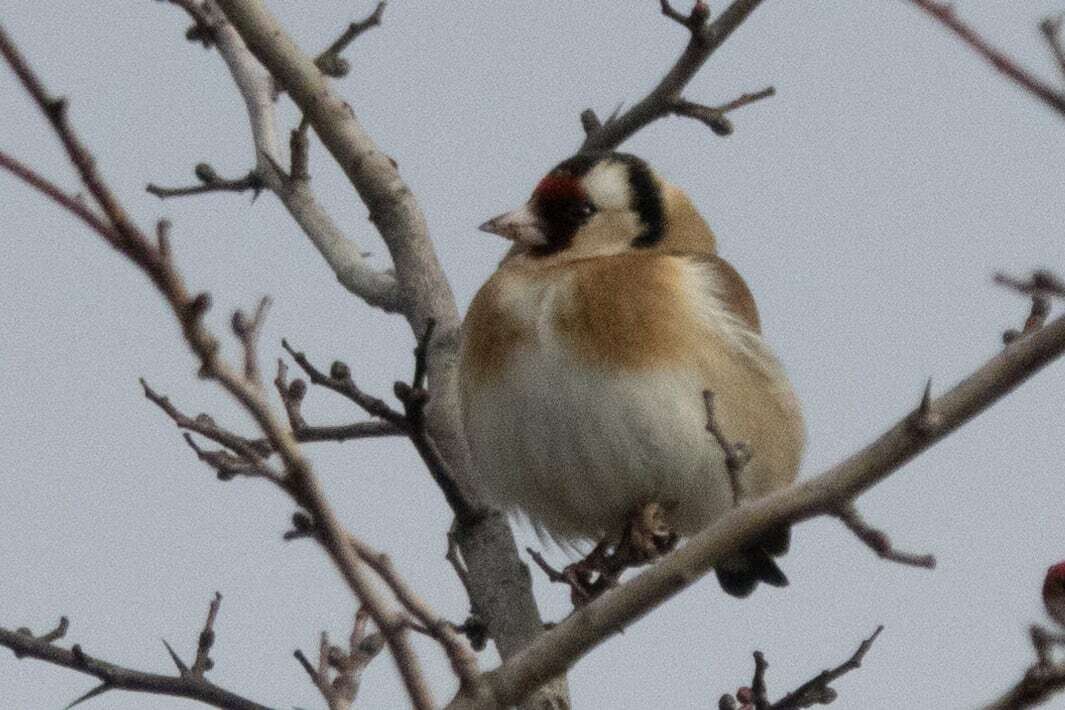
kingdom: Animalia
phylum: Chordata
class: Aves
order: Passeriformes
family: Fringillidae
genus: Carduelis
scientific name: Carduelis carduelis
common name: European goldfinch
